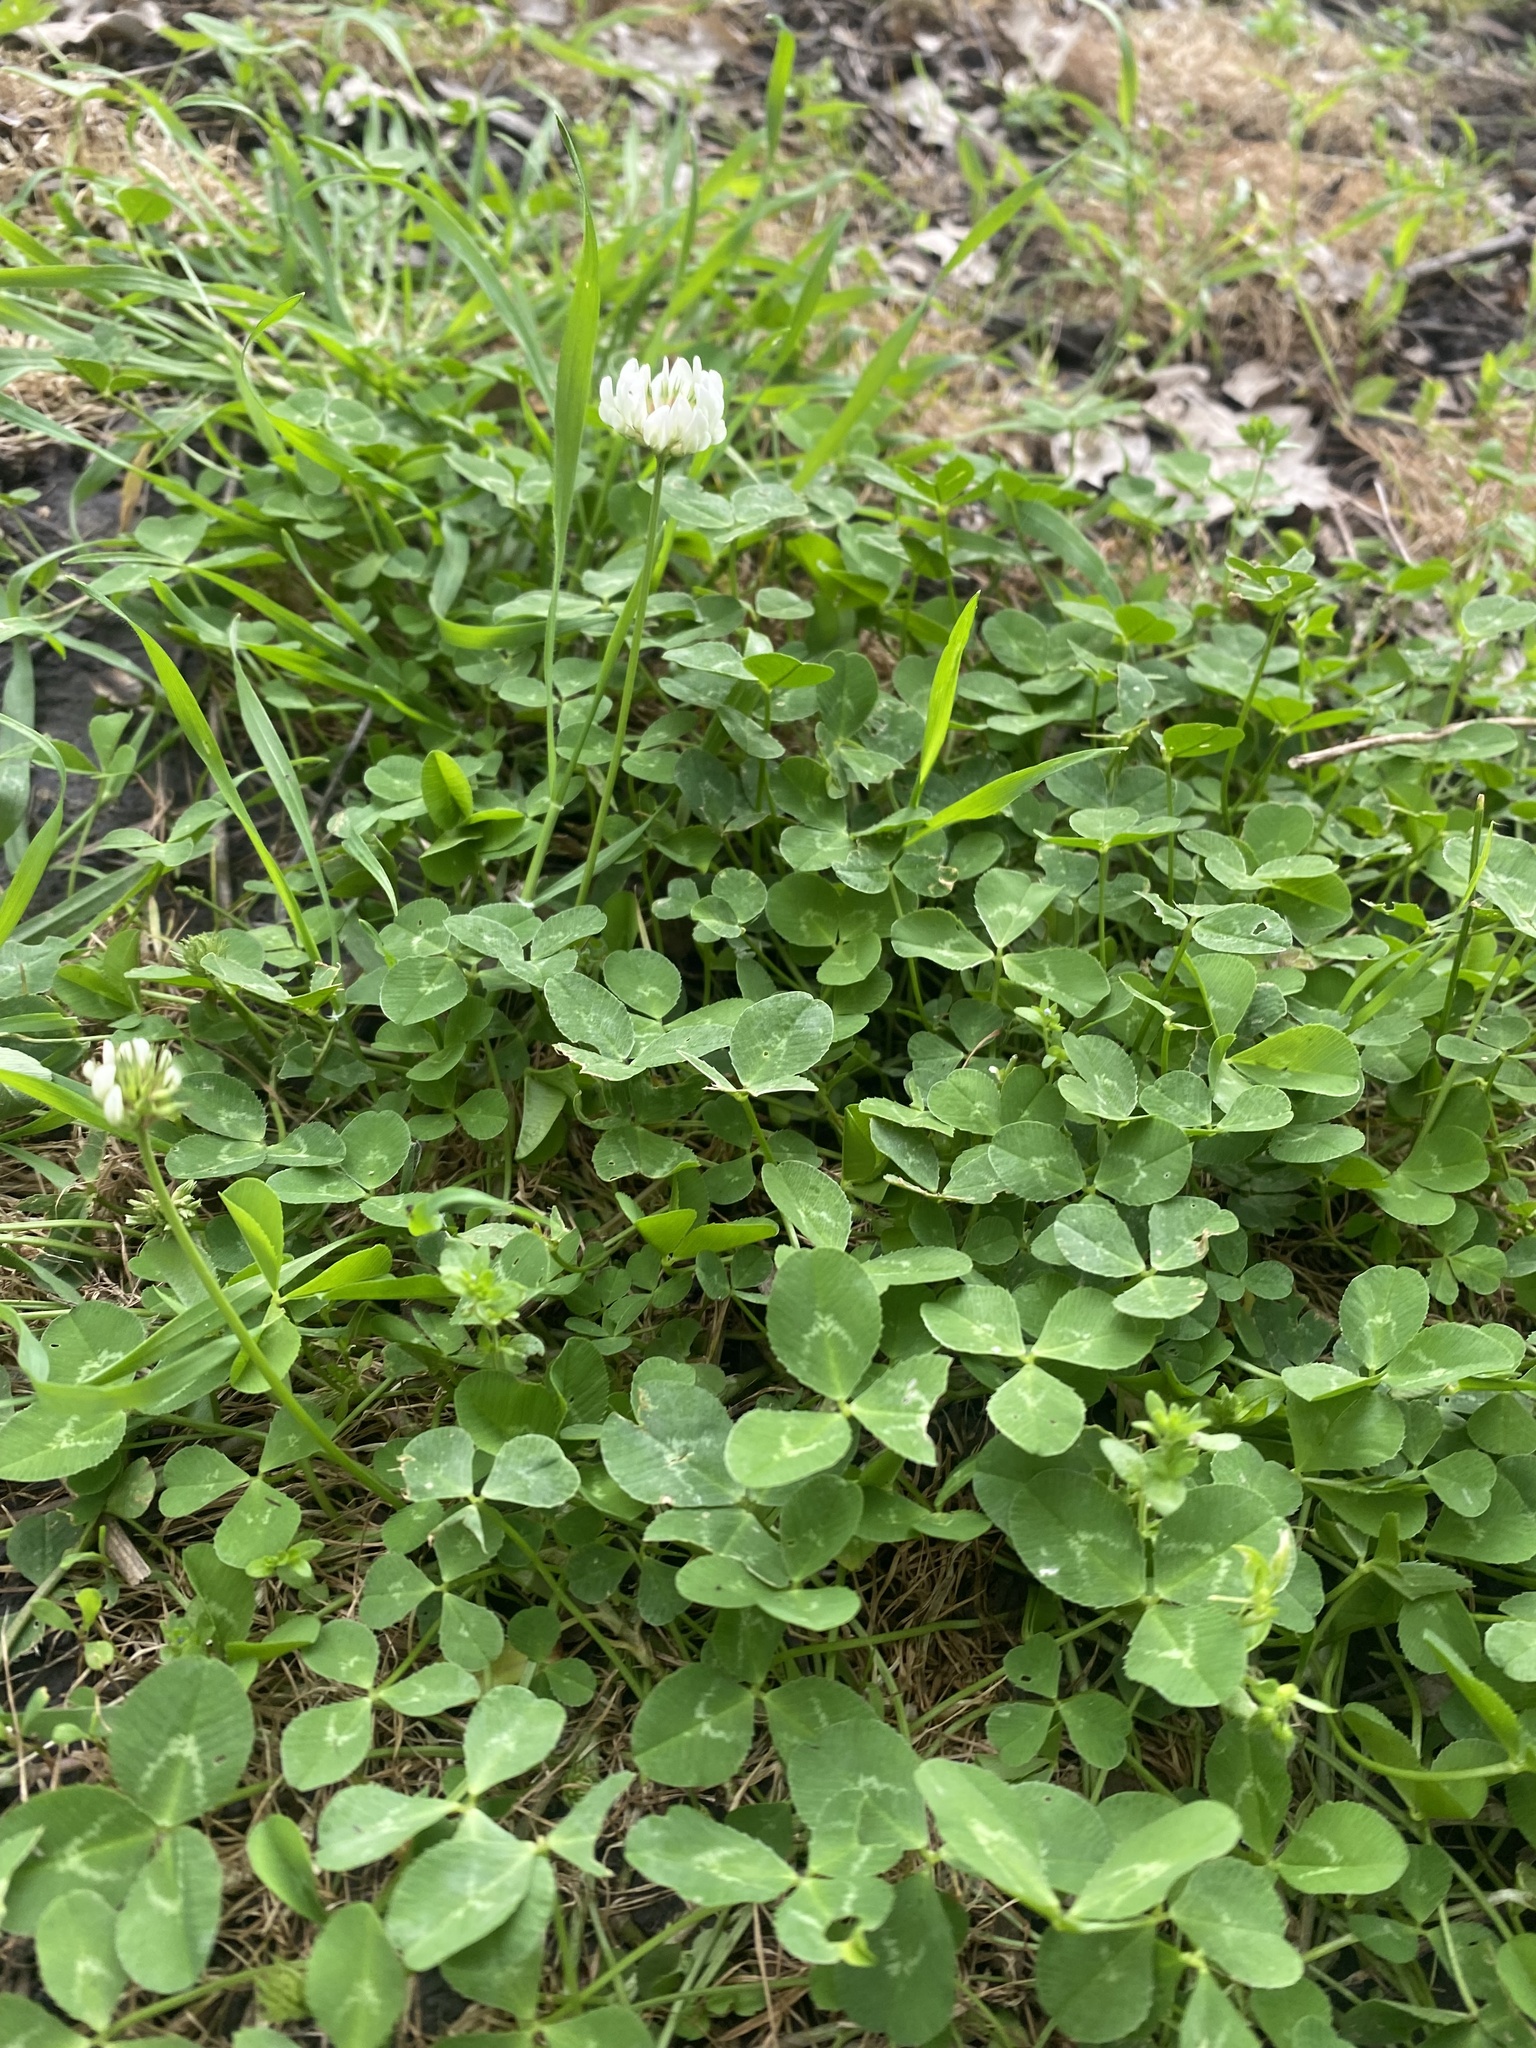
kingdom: Plantae
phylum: Tracheophyta
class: Magnoliopsida
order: Fabales
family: Fabaceae
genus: Trifolium
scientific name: Trifolium repens
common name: White clover
